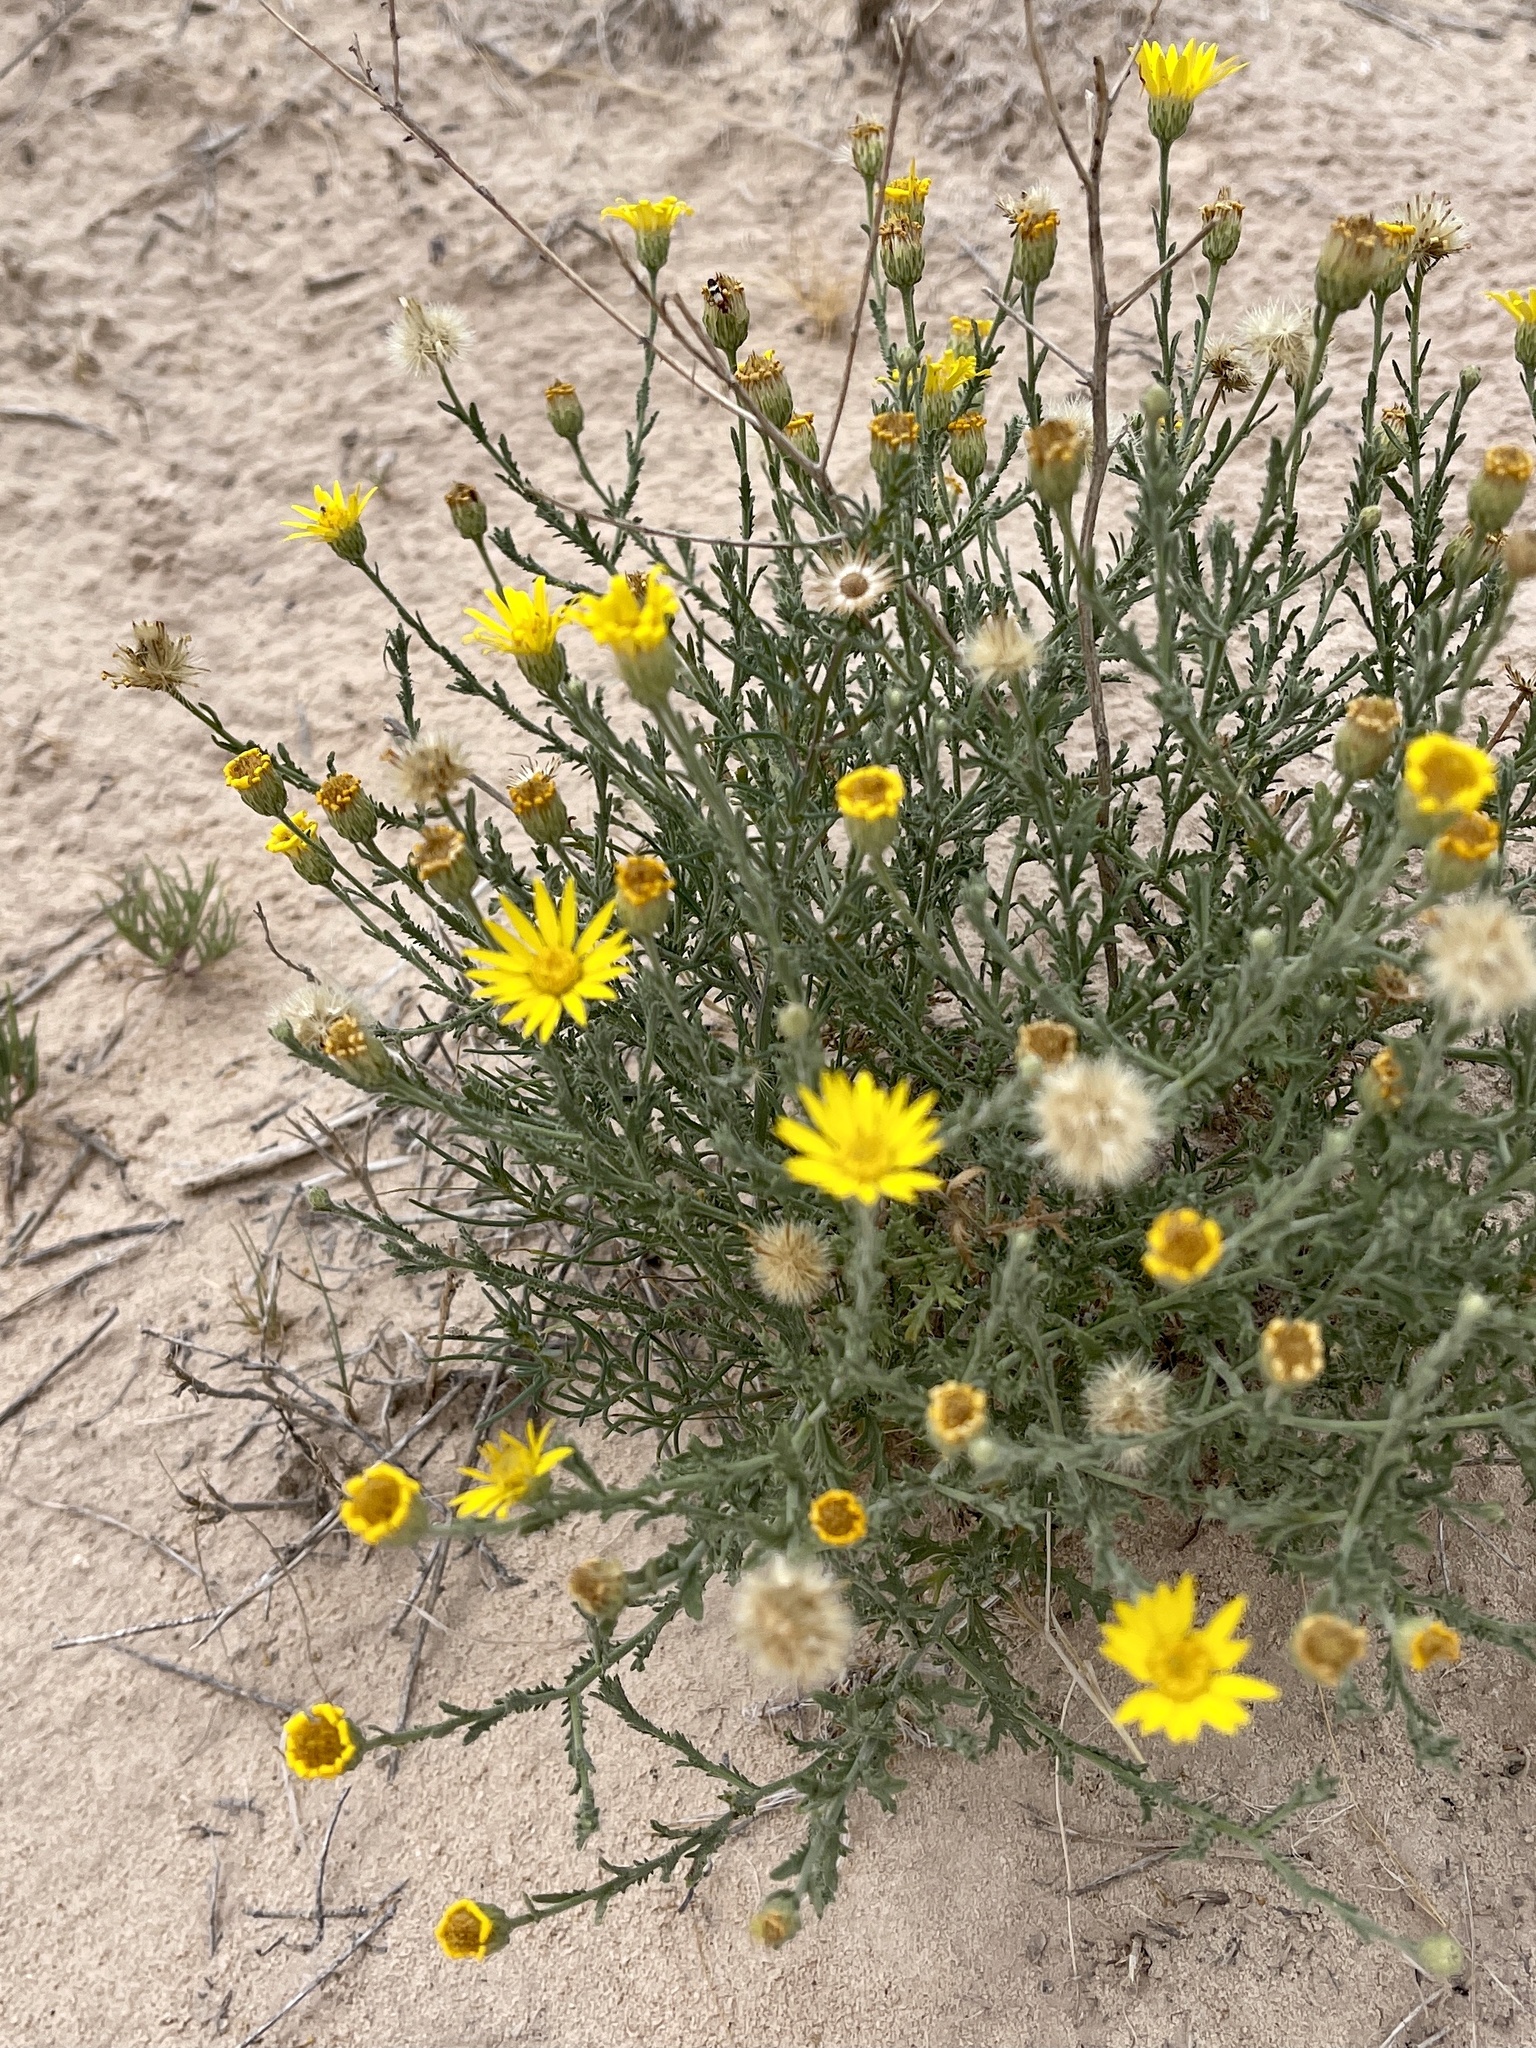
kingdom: Plantae
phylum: Tracheophyta
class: Magnoliopsida
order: Asterales
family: Asteraceae
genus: Xanthisma
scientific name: Xanthisma spinulosum
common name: Spiny goldenweed
